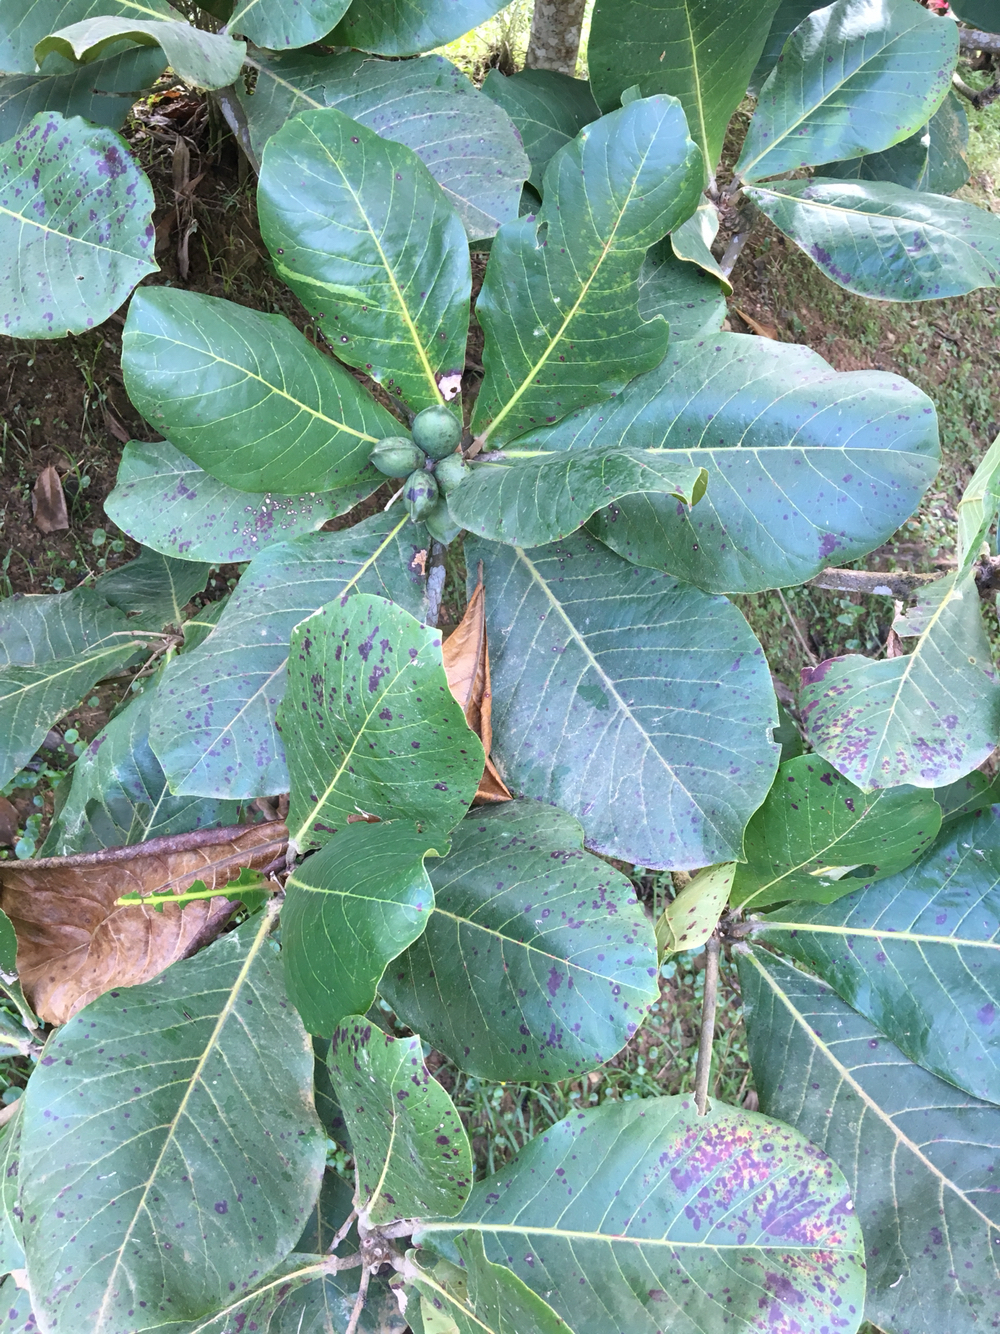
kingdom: Plantae
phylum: Tracheophyta
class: Magnoliopsida
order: Myrtales
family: Combretaceae
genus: Terminalia
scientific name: Terminalia catappa
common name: Tropical almond
